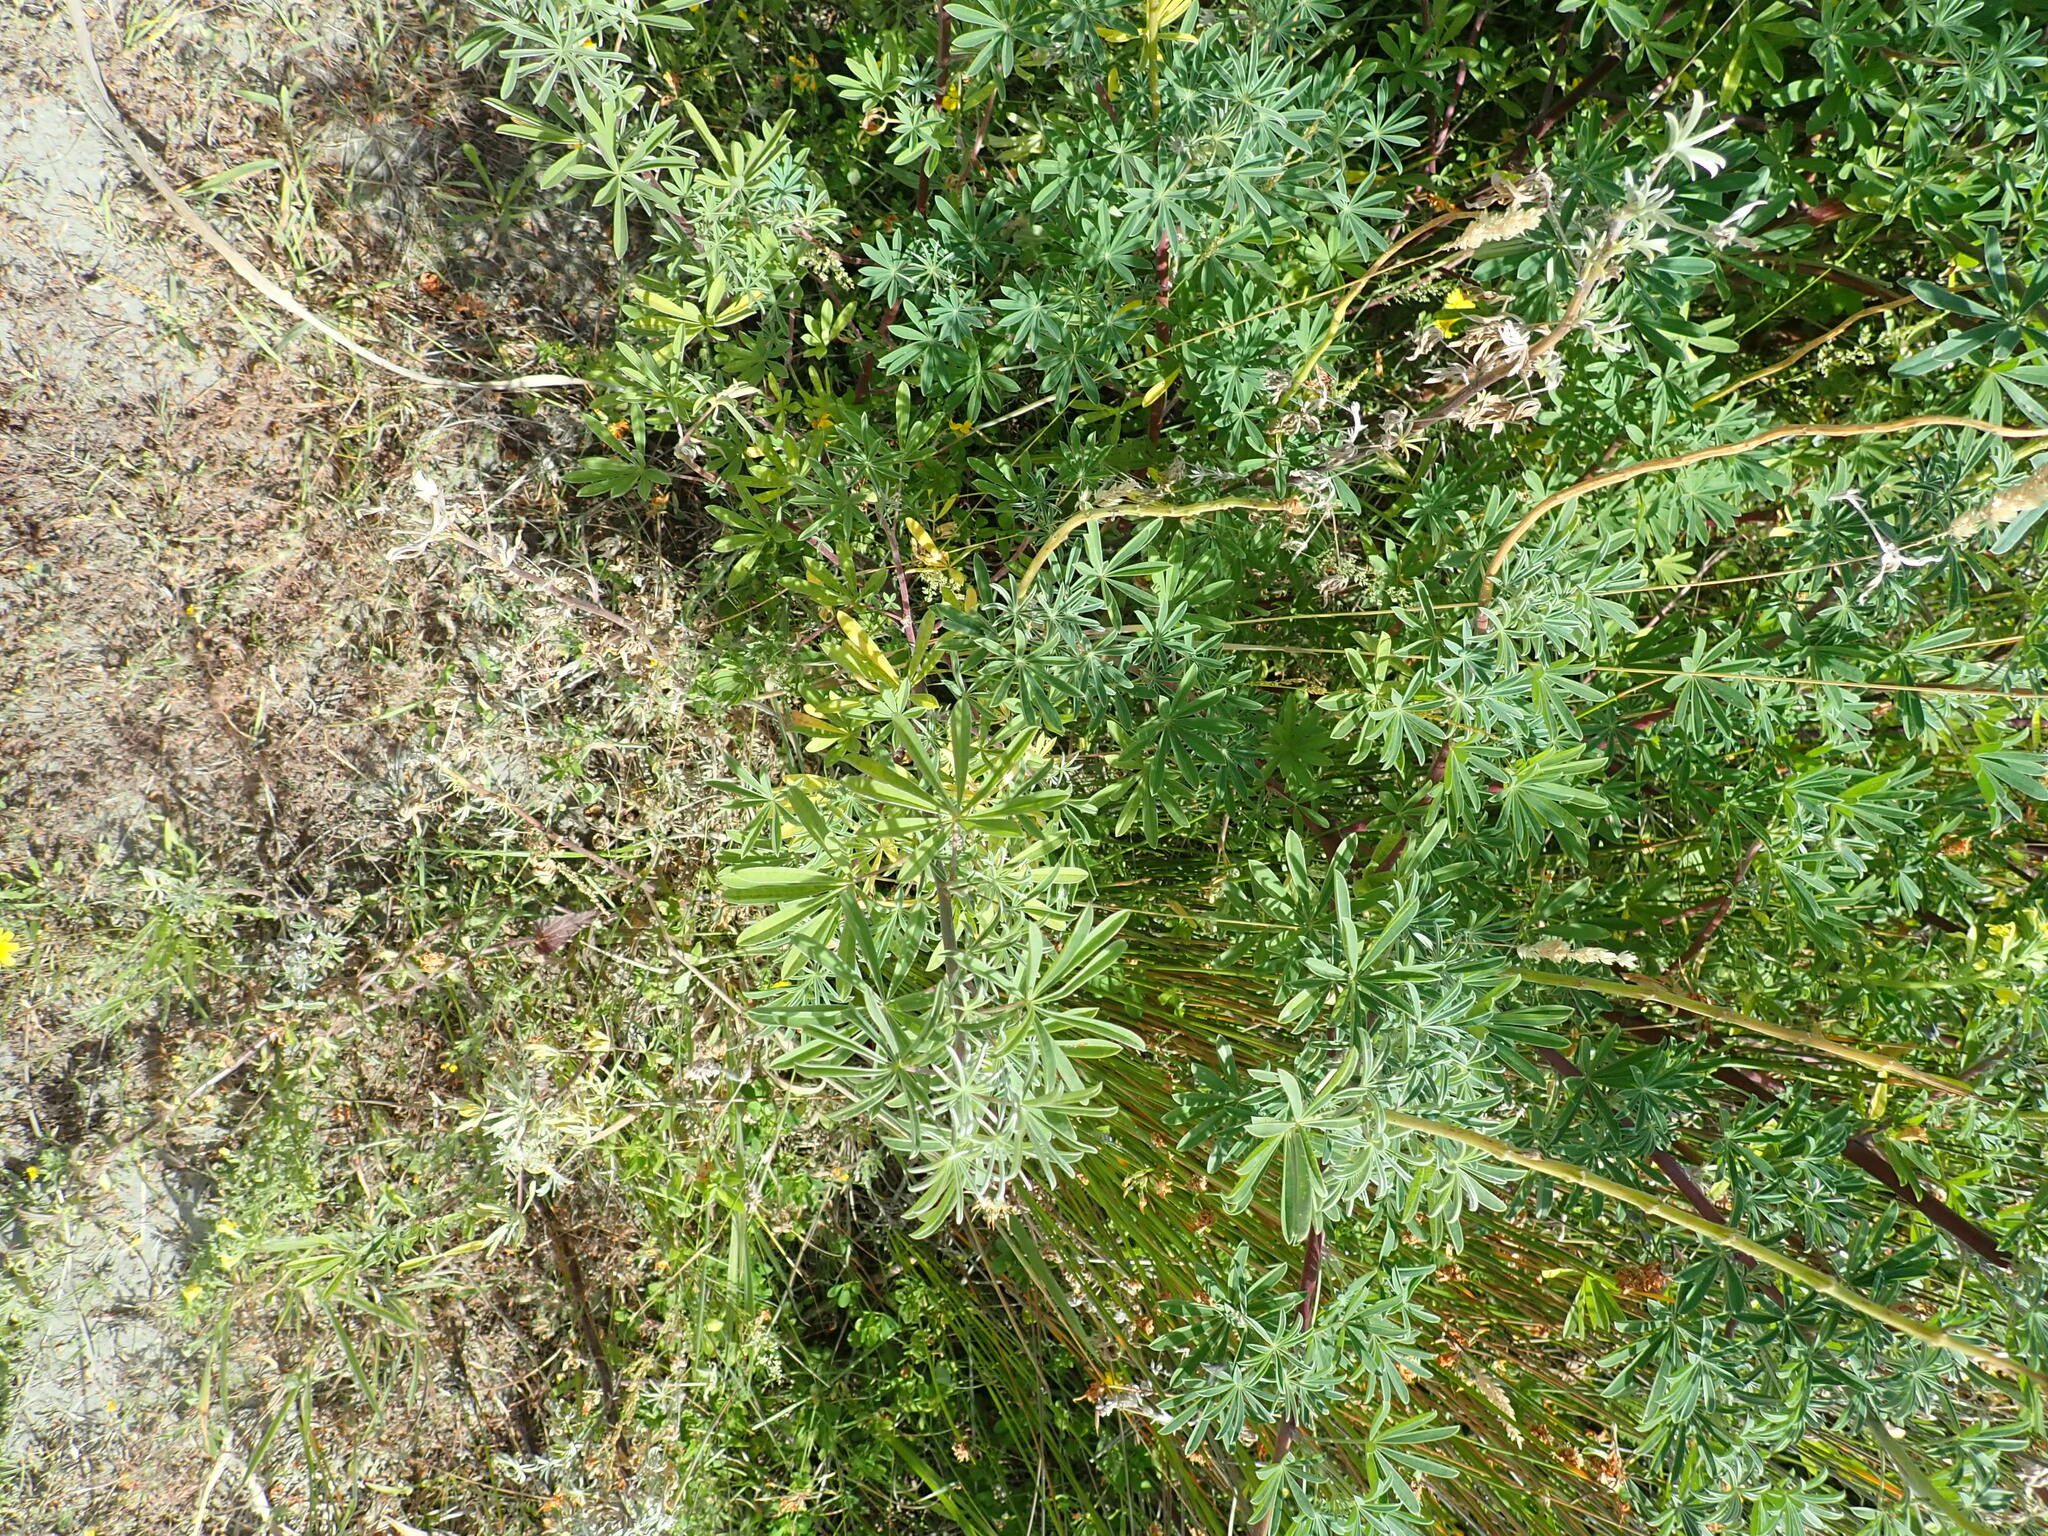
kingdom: Plantae
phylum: Tracheophyta
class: Magnoliopsida
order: Fabales
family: Fabaceae
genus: Lupinus
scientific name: Lupinus arboreus
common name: Yellow bush lupine
